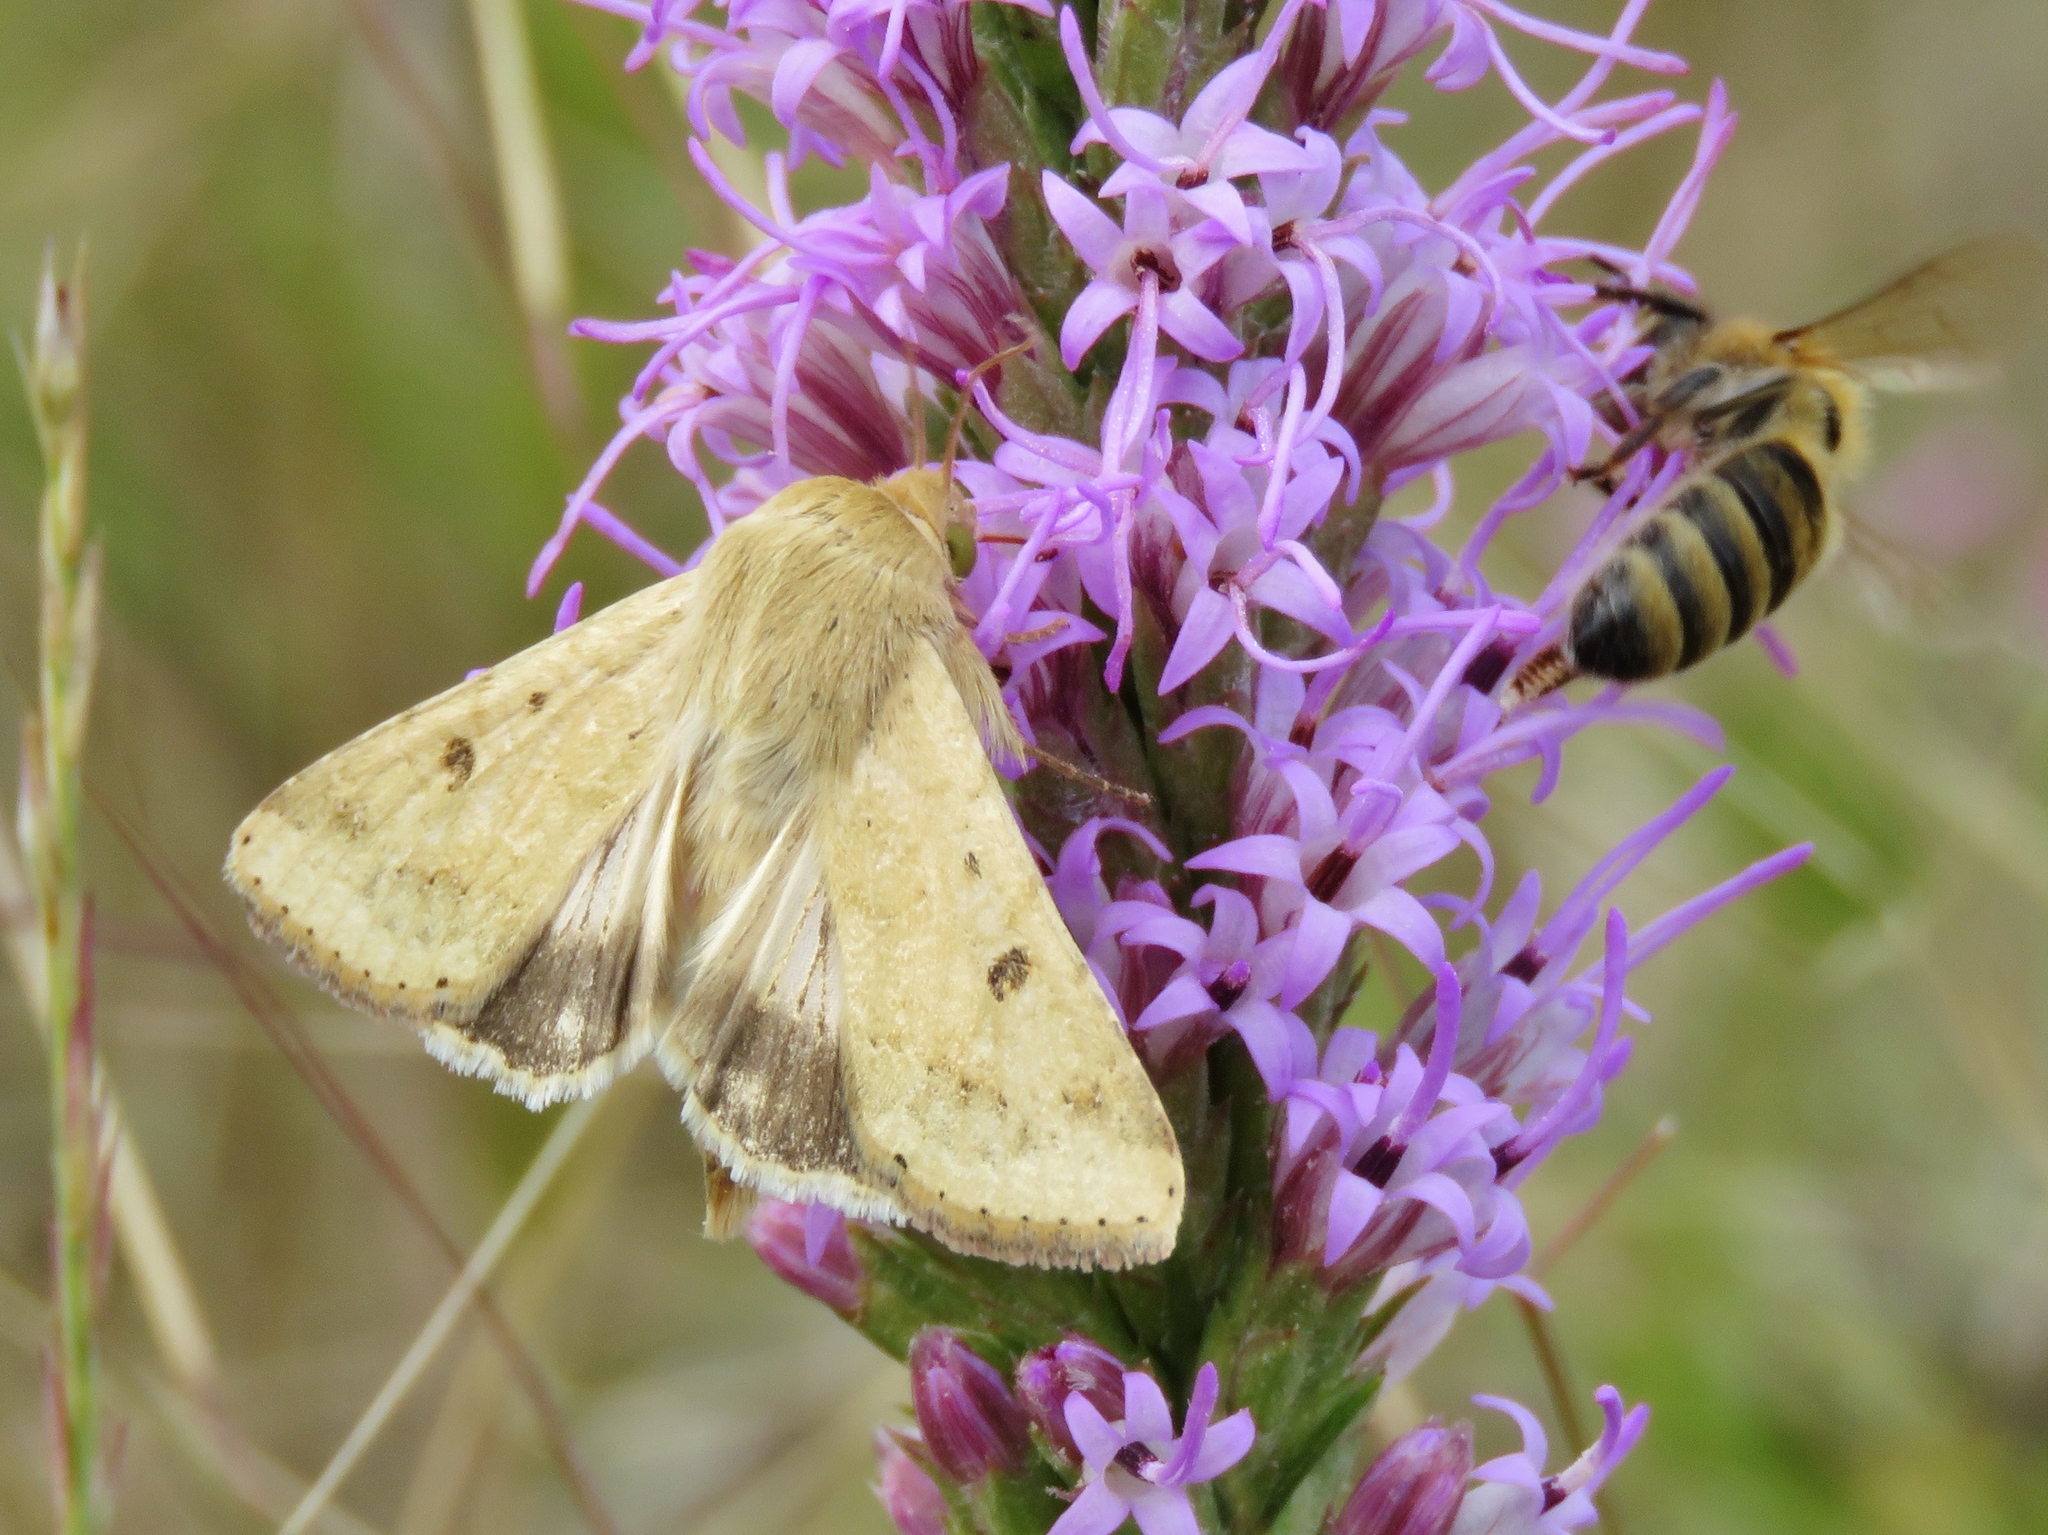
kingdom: Animalia
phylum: Arthropoda
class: Insecta
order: Lepidoptera
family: Noctuidae
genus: Helicoverpa
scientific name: Helicoverpa zea
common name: Bollworm
